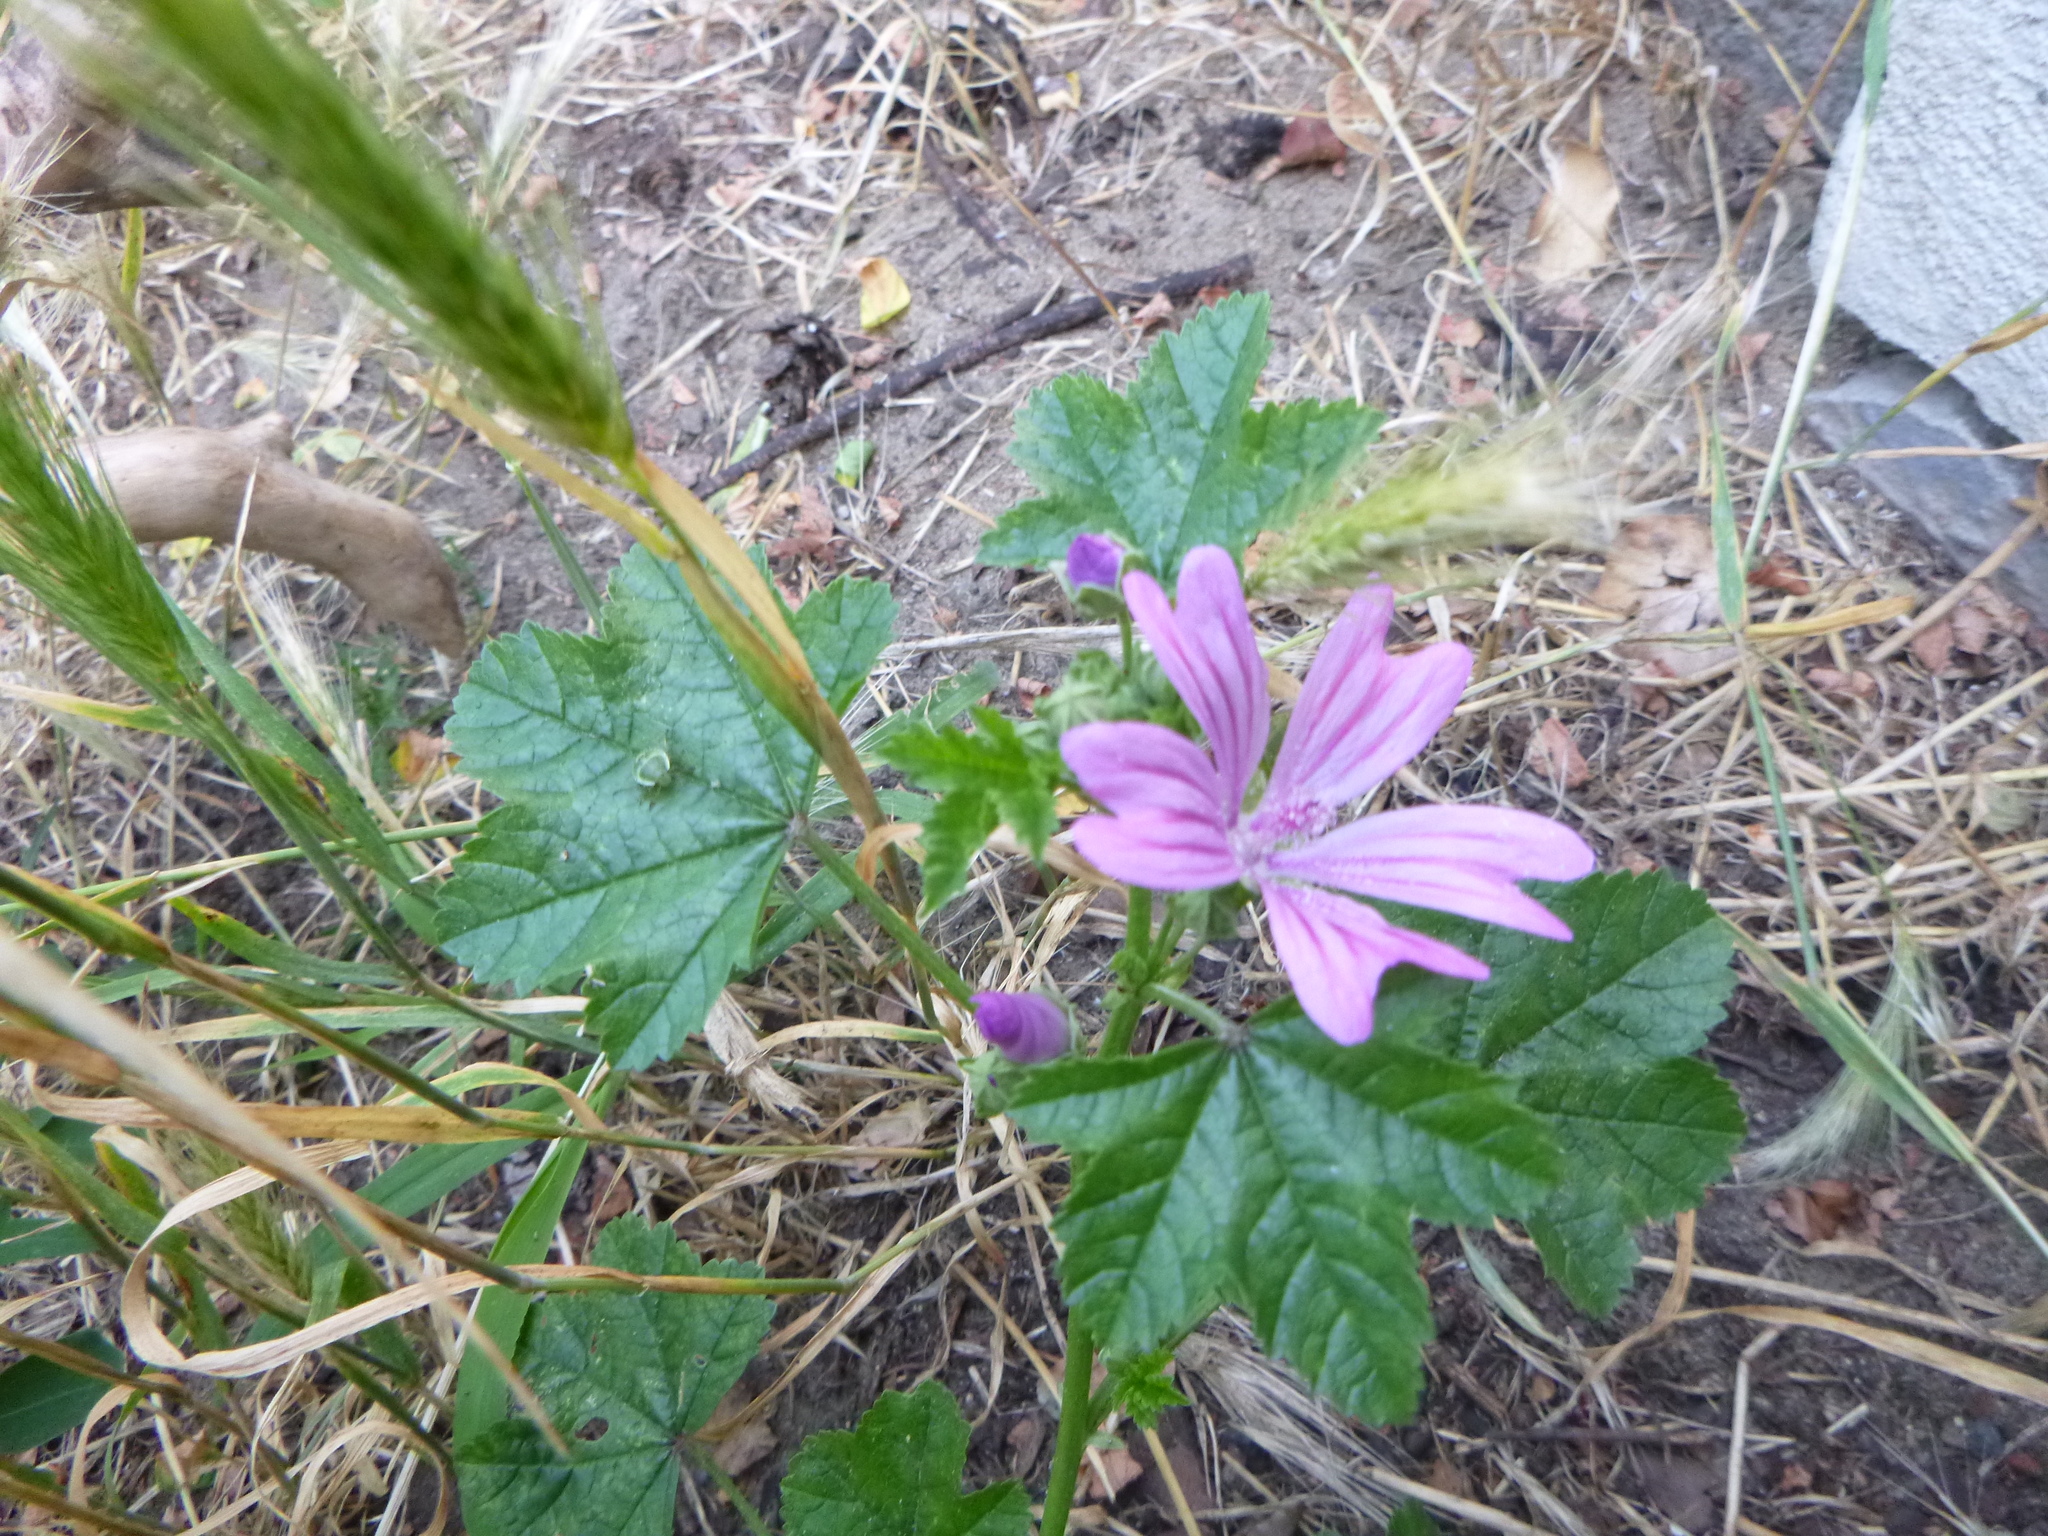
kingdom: Plantae
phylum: Tracheophyta
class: Magnoliopsida
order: Malvales
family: Malvaceae
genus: Malva
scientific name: Malva sylvestris
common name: Common mallow
